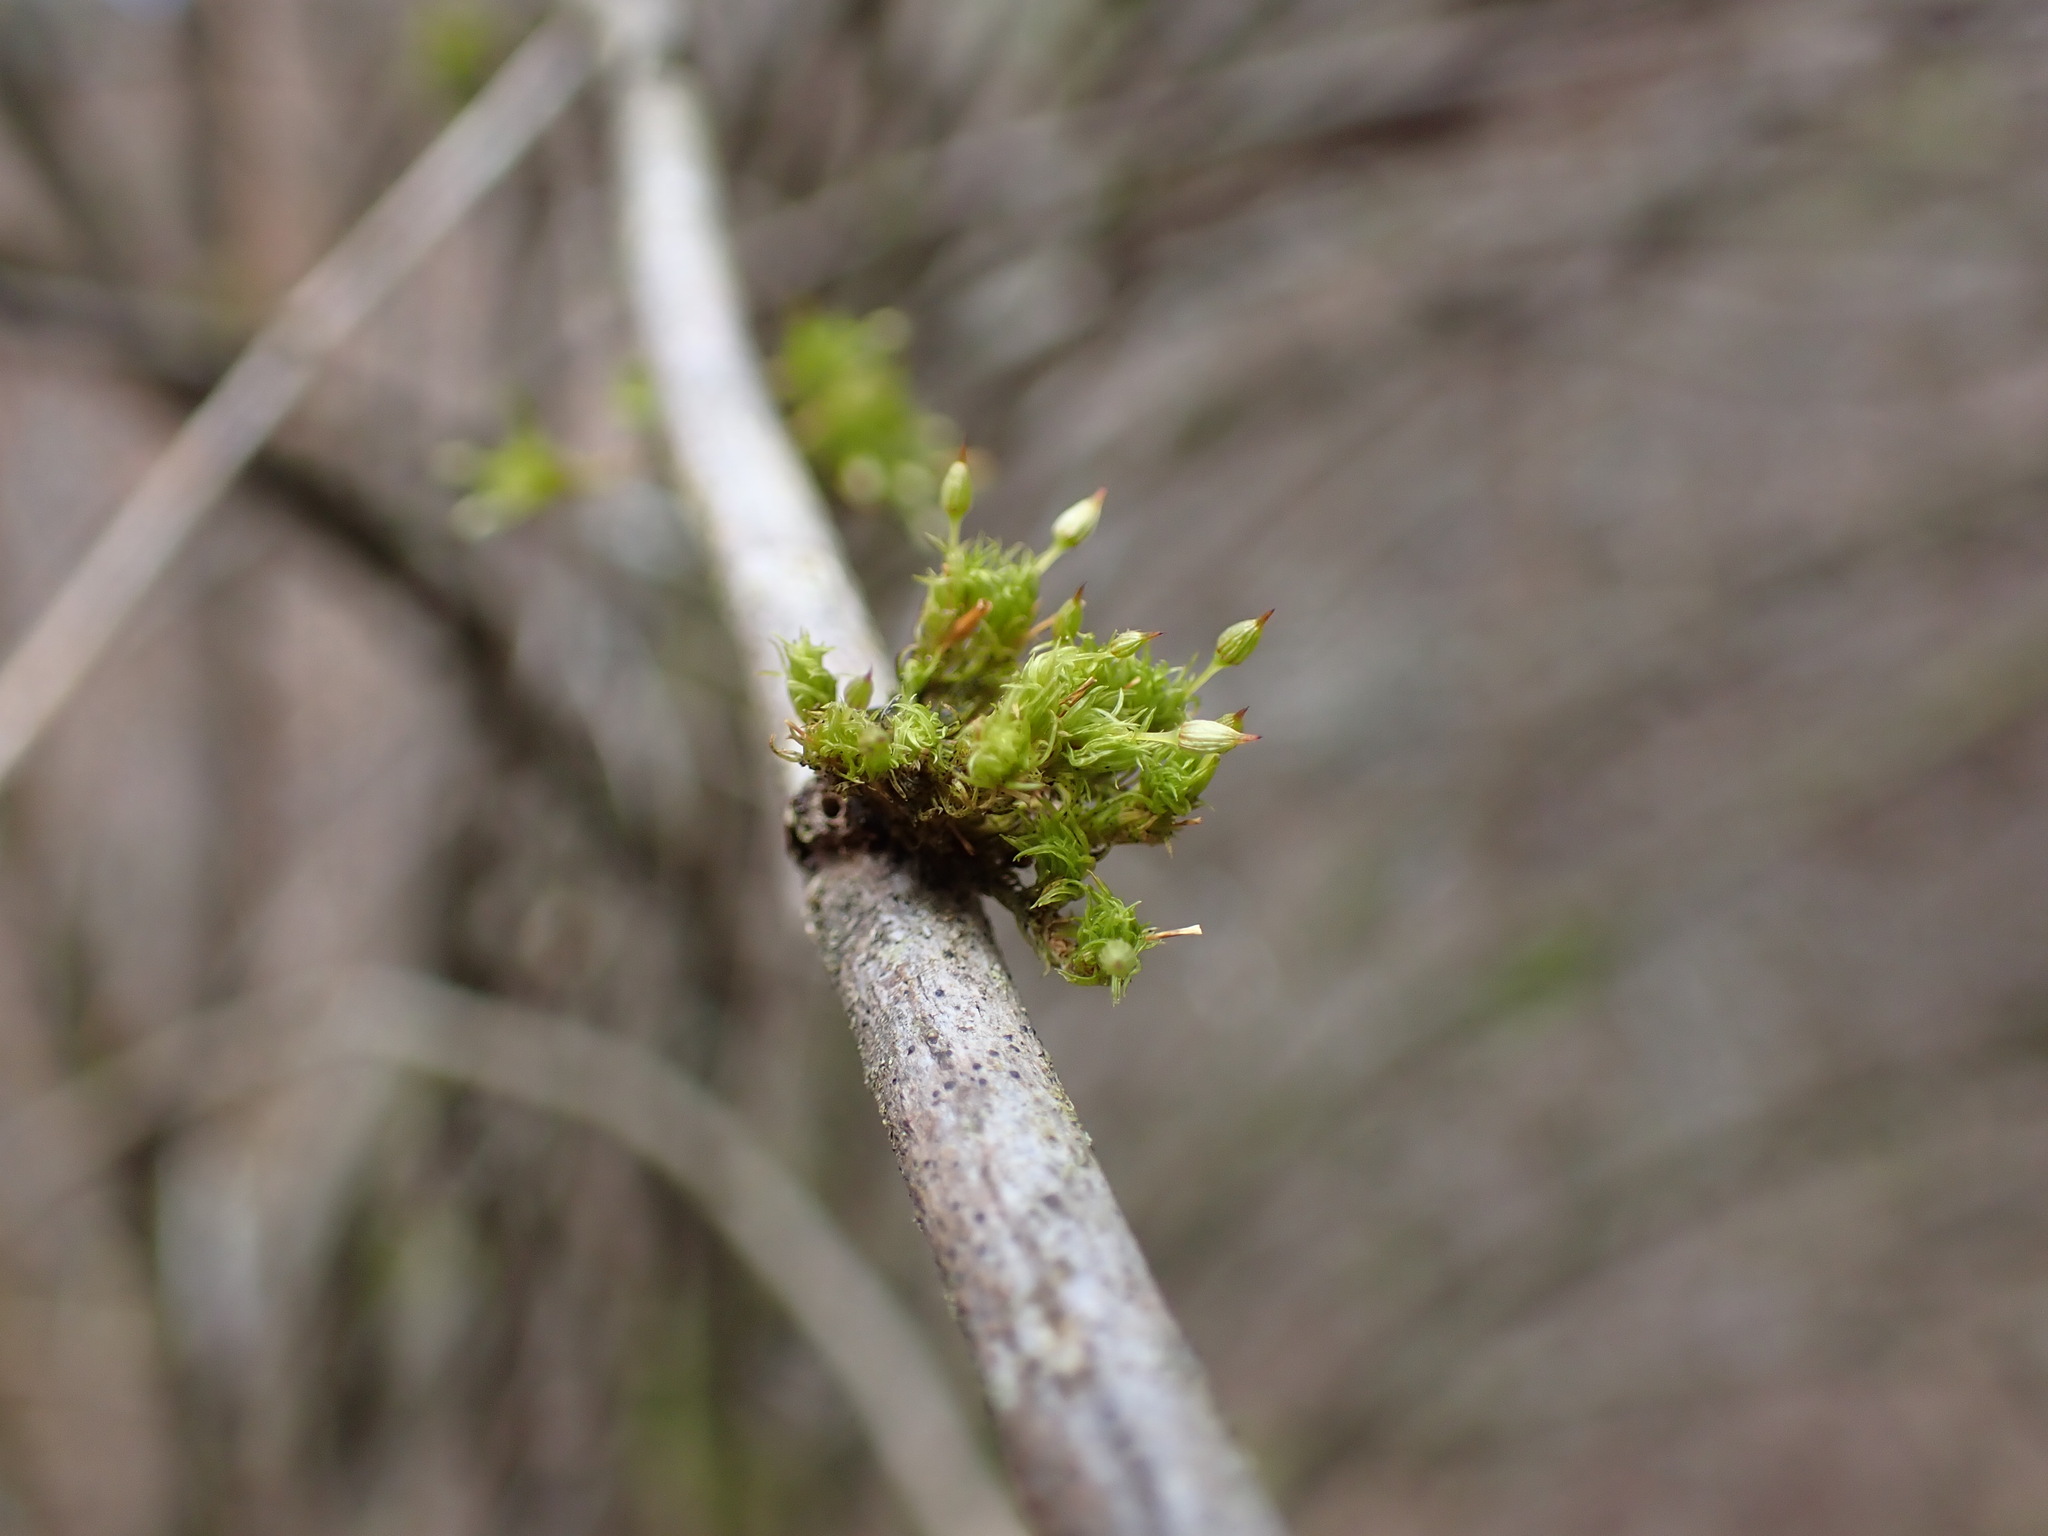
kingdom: Plantae
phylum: Bryophyta
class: Bryopsida
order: Orthotrichales
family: Orthotrichaceae
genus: Orthotrichum
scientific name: Orthotrichum pulchellum
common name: Elegant bristle-moss
